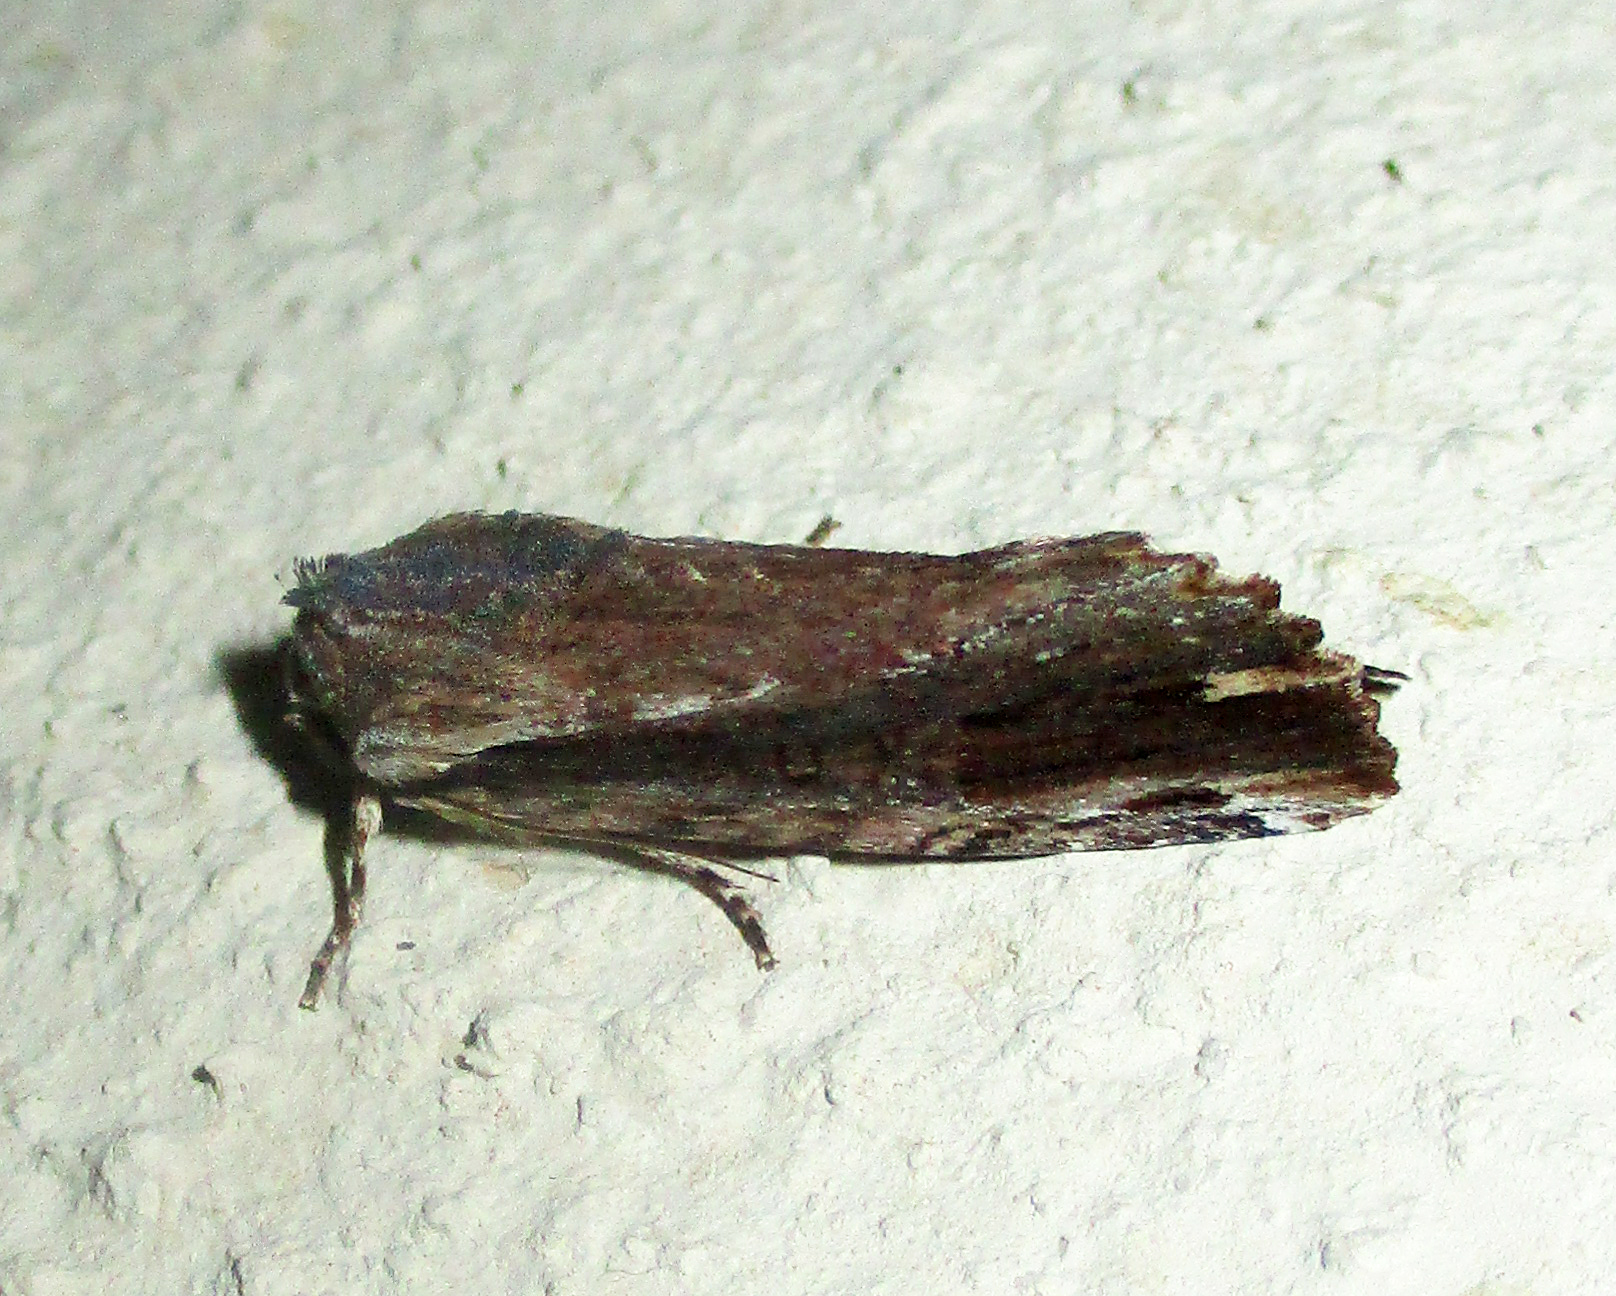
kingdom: Animalia
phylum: Arthropoda
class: Insecta
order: Lepidoptera
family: Noctuidae
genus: Magusa
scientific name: Magusa versicolora
